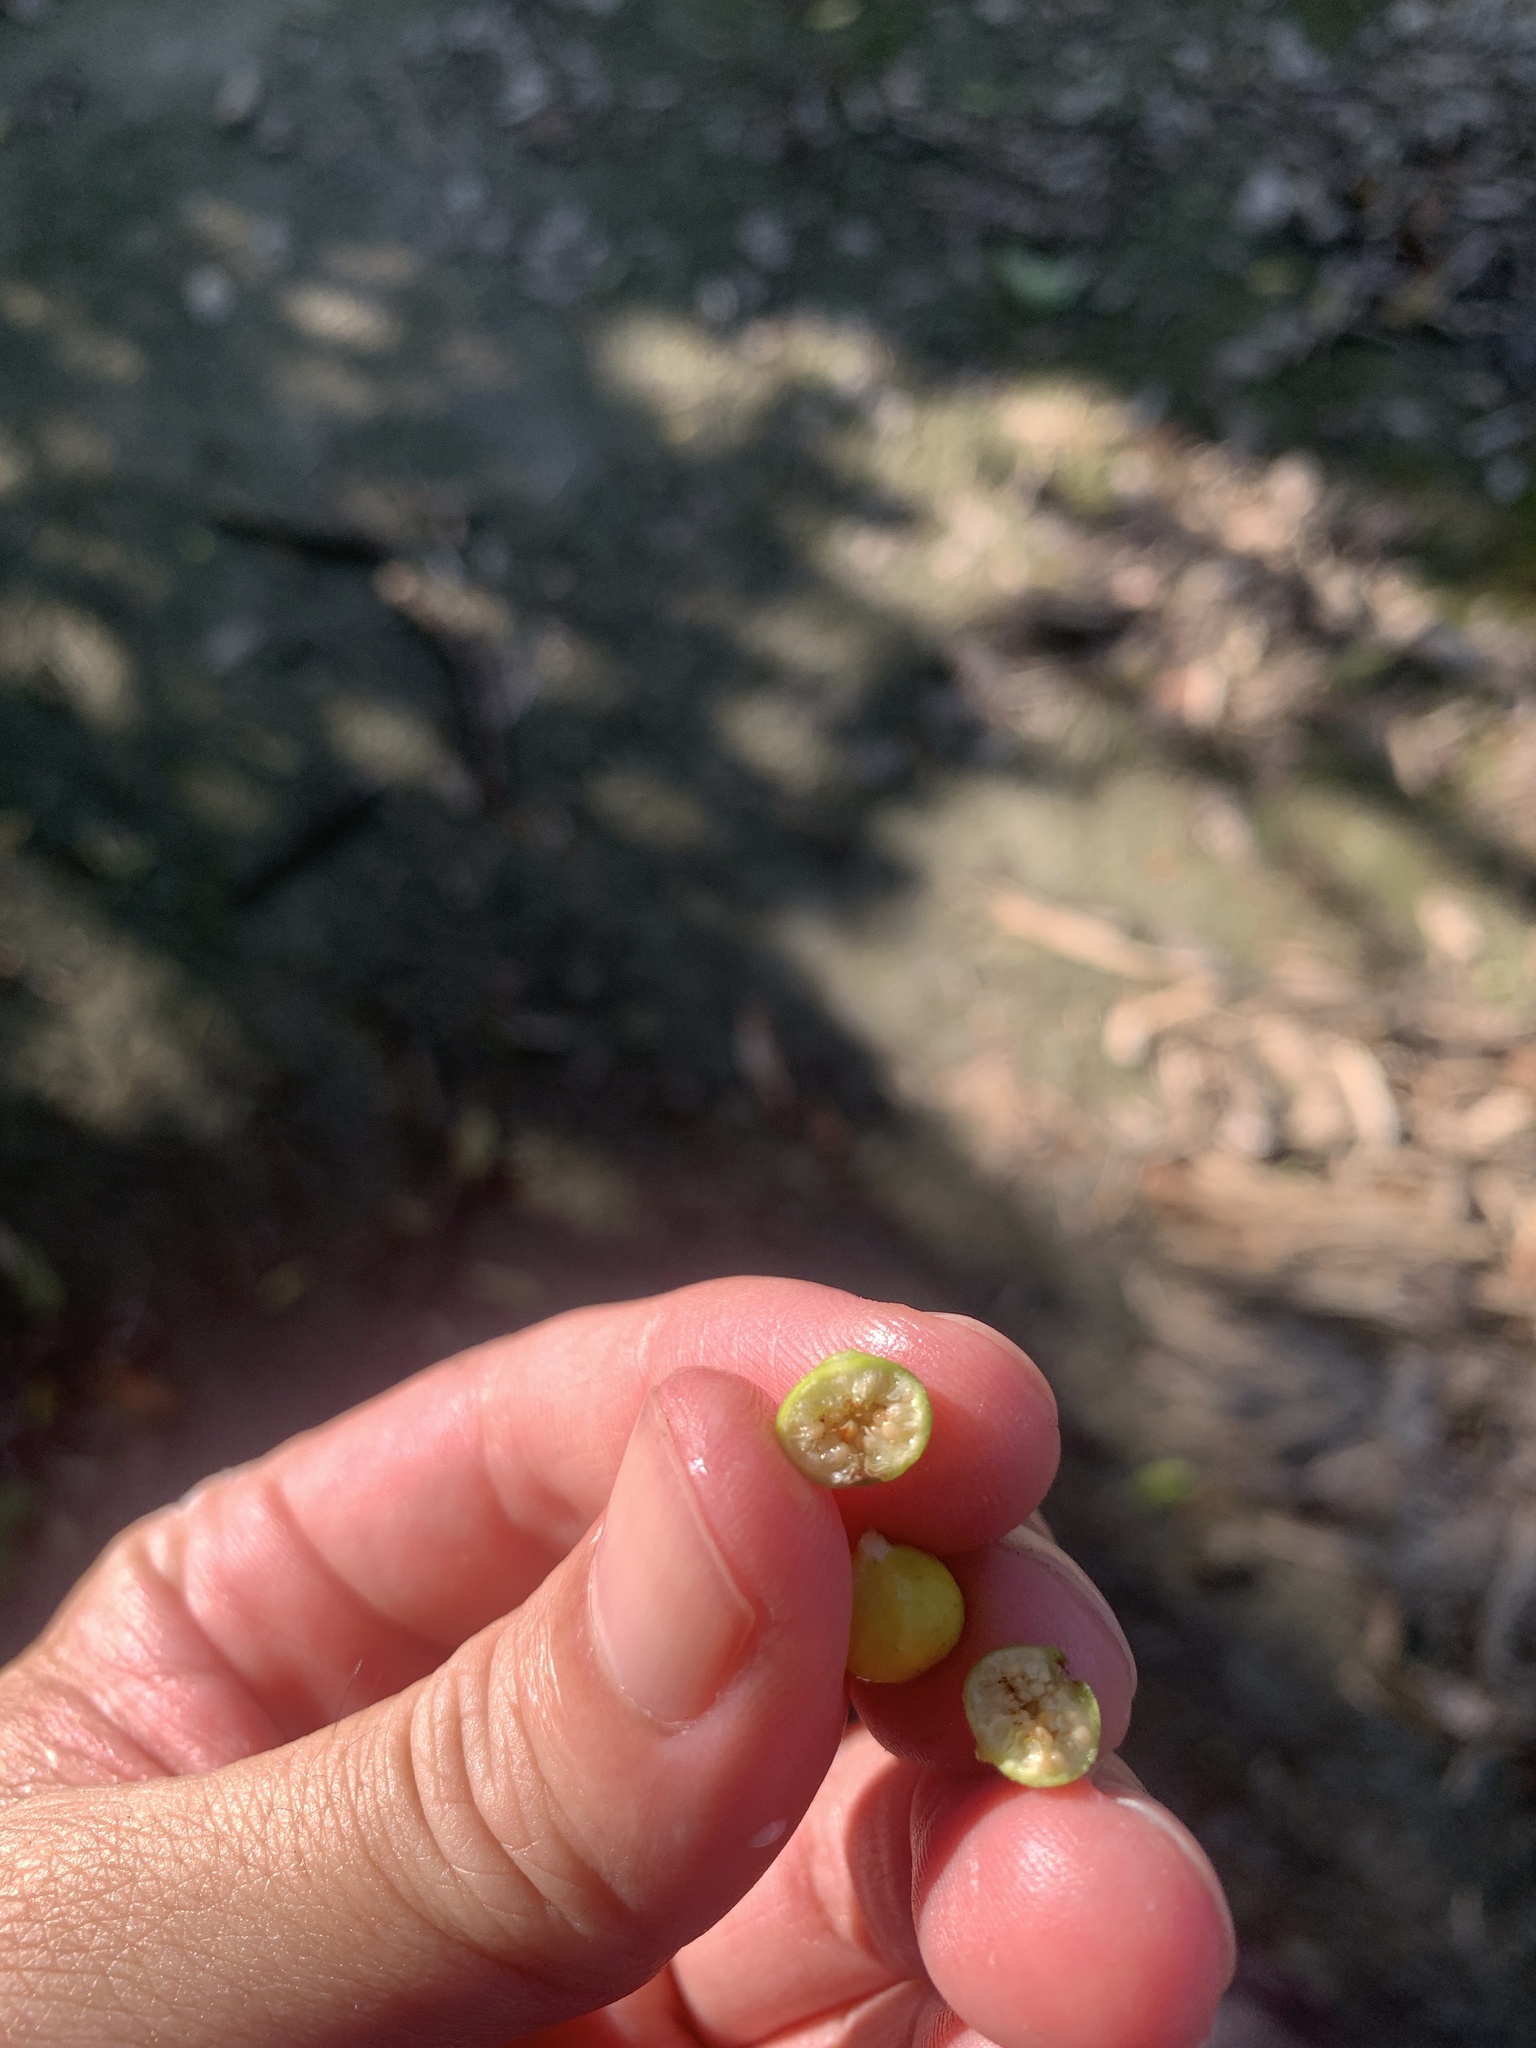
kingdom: Plantae
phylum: Tracheophyta
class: Magnoliopsida
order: Rosales
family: Moraceae
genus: Ficus
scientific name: Ficus ampelos
